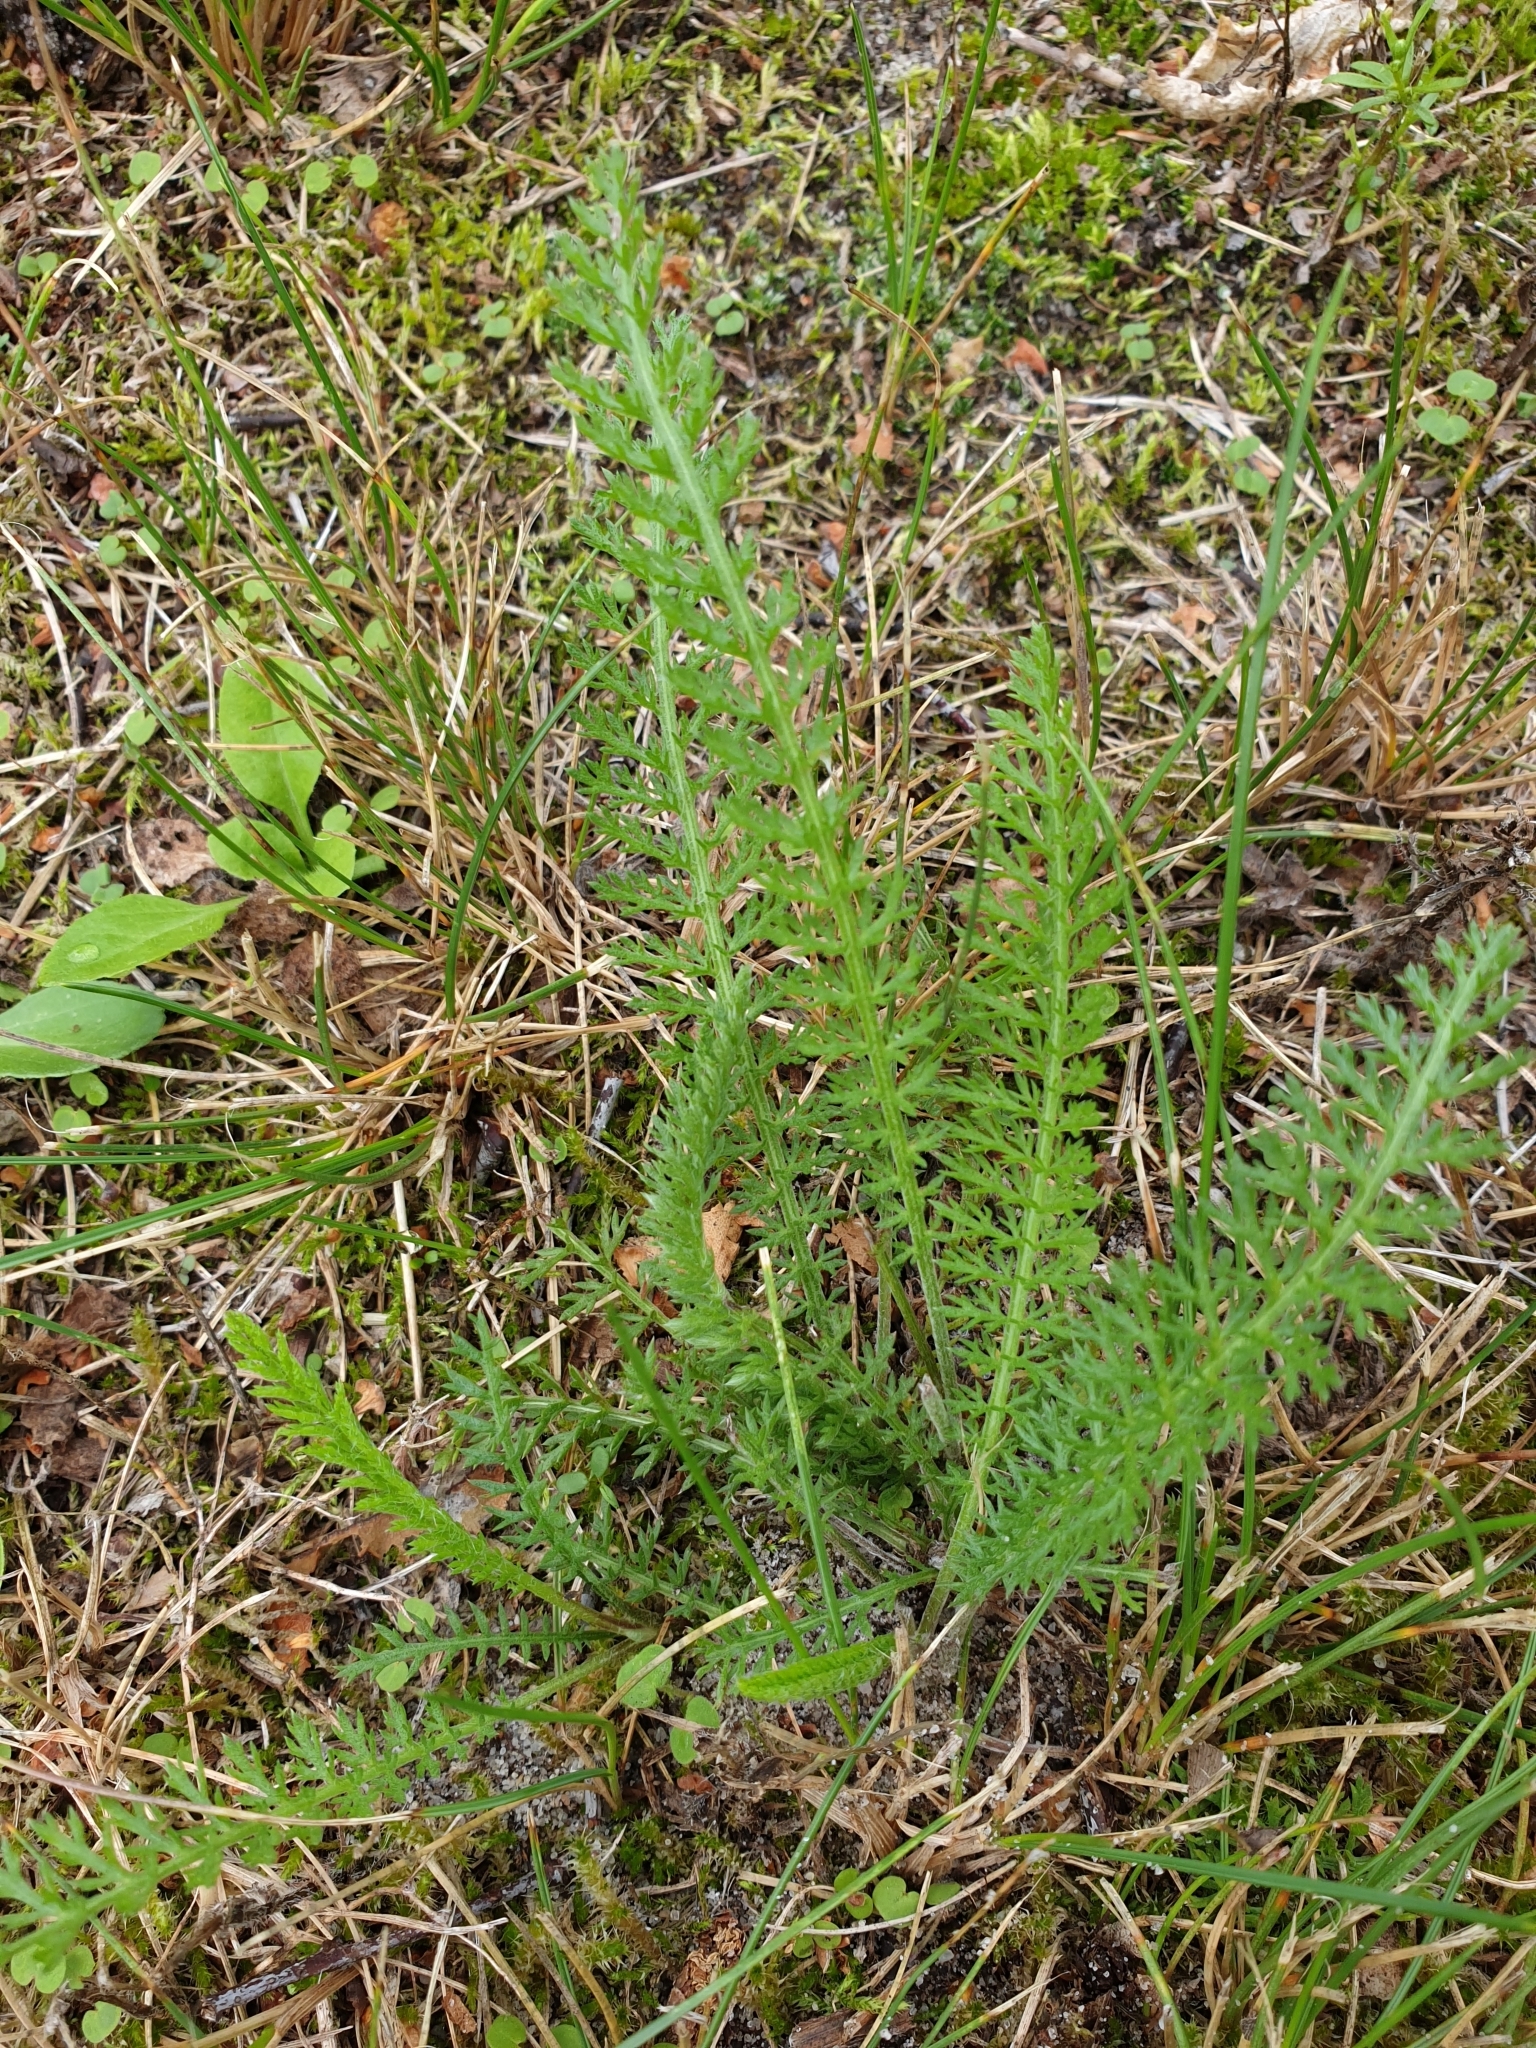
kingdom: Plantae
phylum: Tracheophyta
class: Magnoliopsida
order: Asterales
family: Asteraceae
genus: Achillea
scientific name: Achillea millefolium
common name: Yarrow
